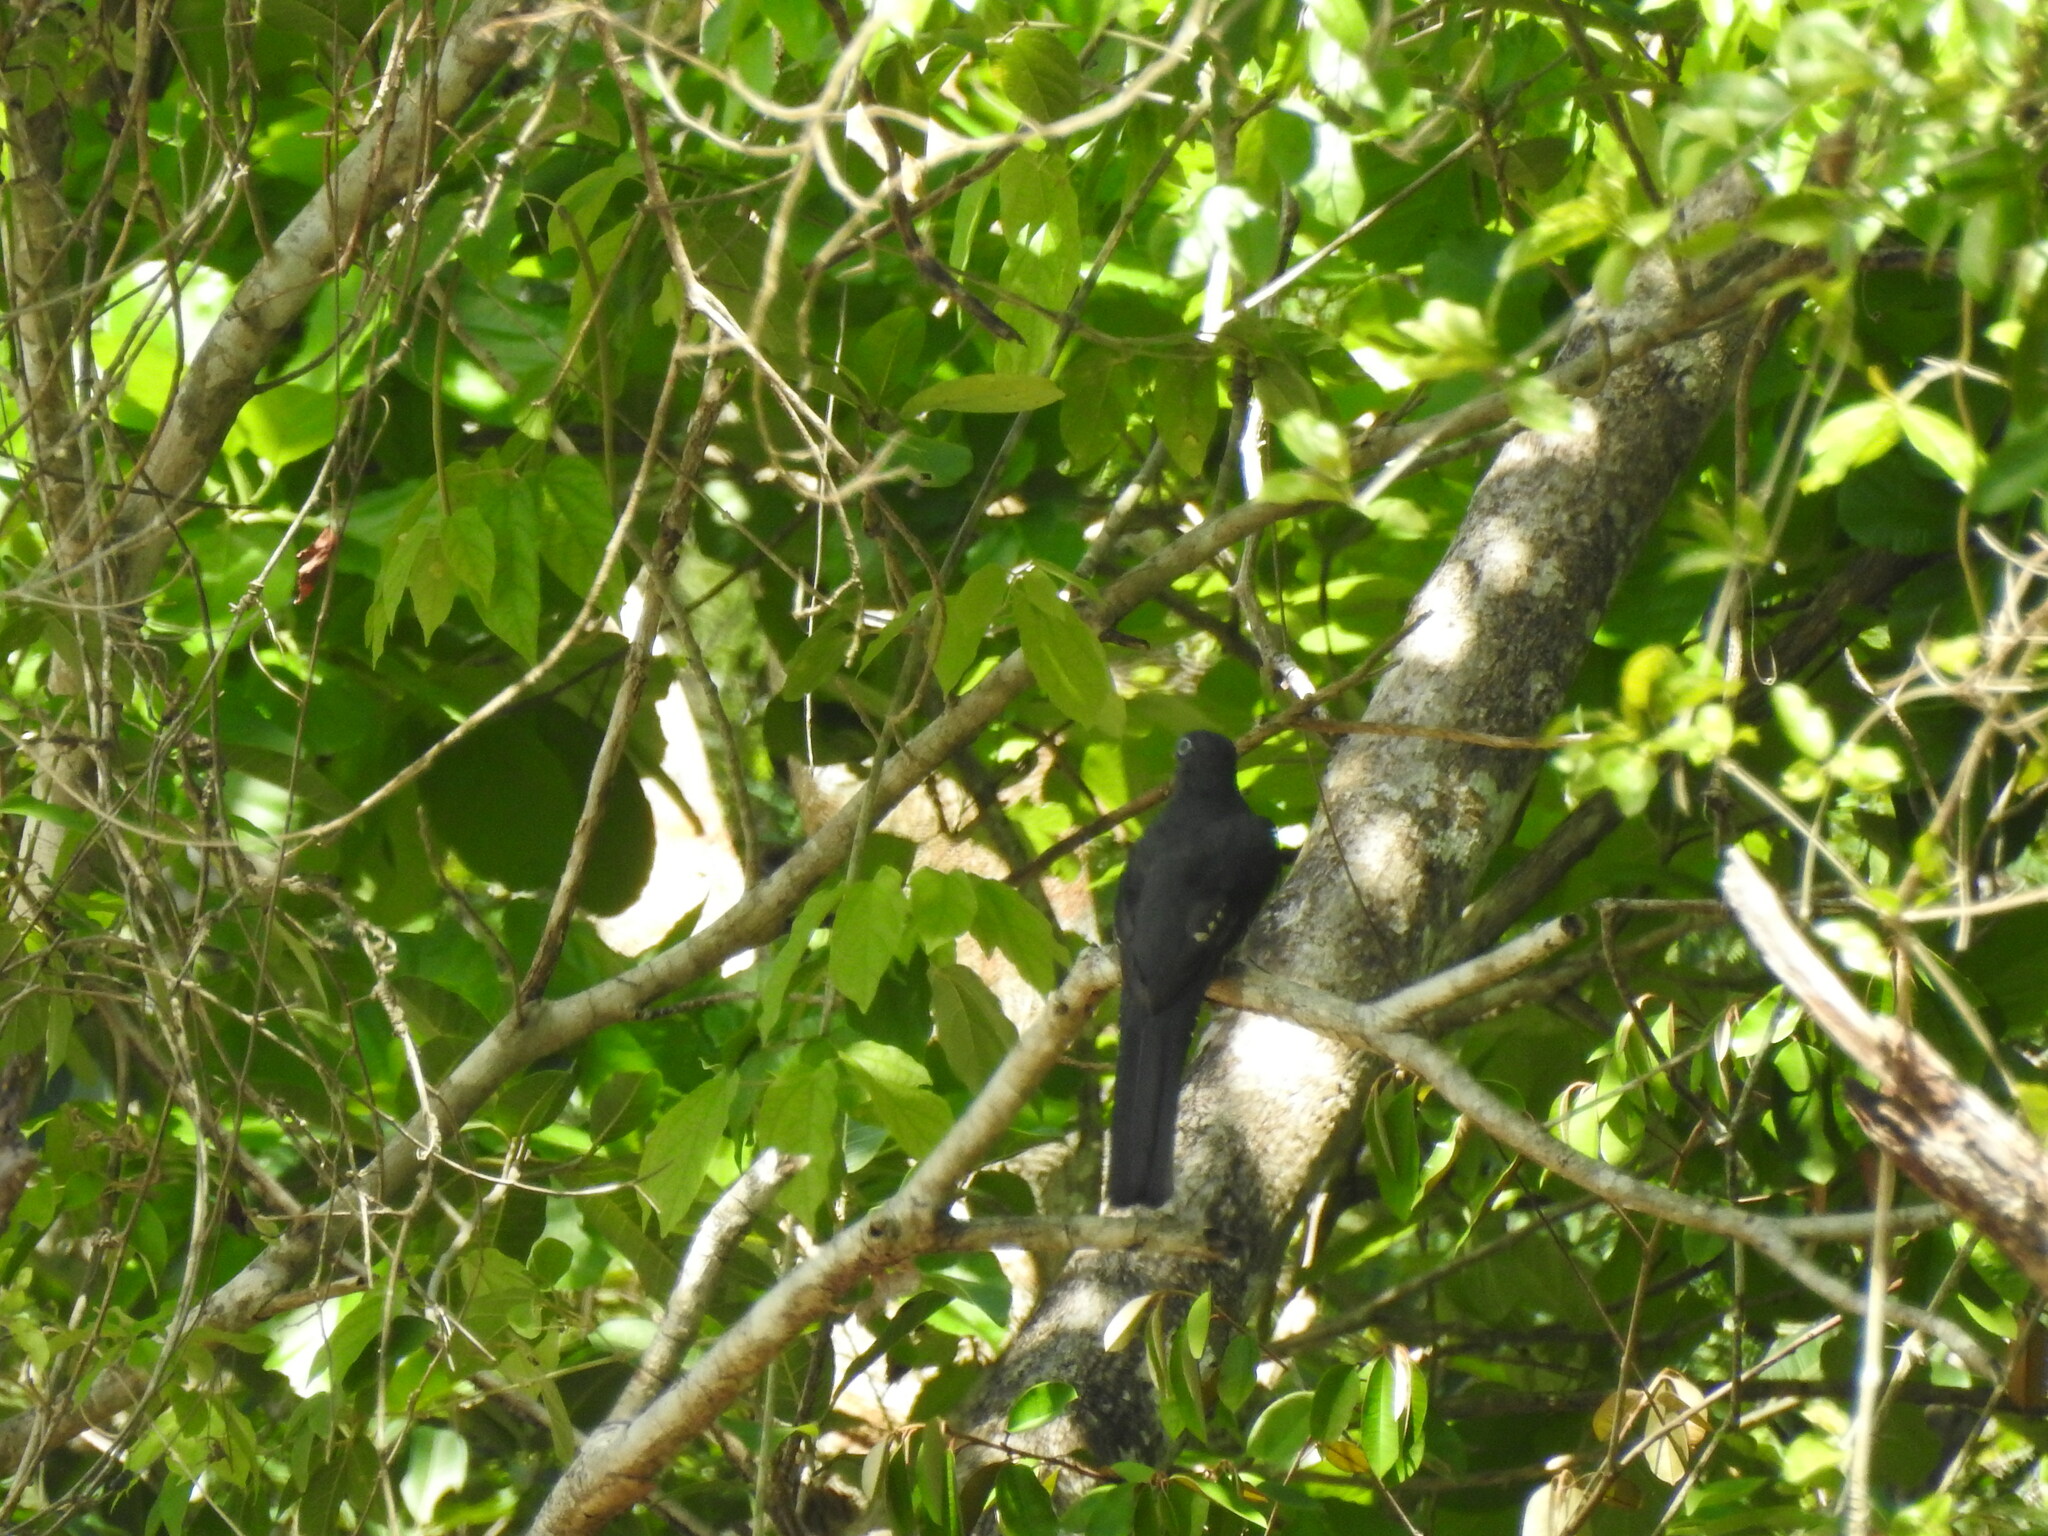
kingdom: Animalia
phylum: Chordata
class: Aves
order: Trogoniformes
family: Trogonidae
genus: Trogon
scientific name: Trogon melanocephalus
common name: Black-headed trogon
